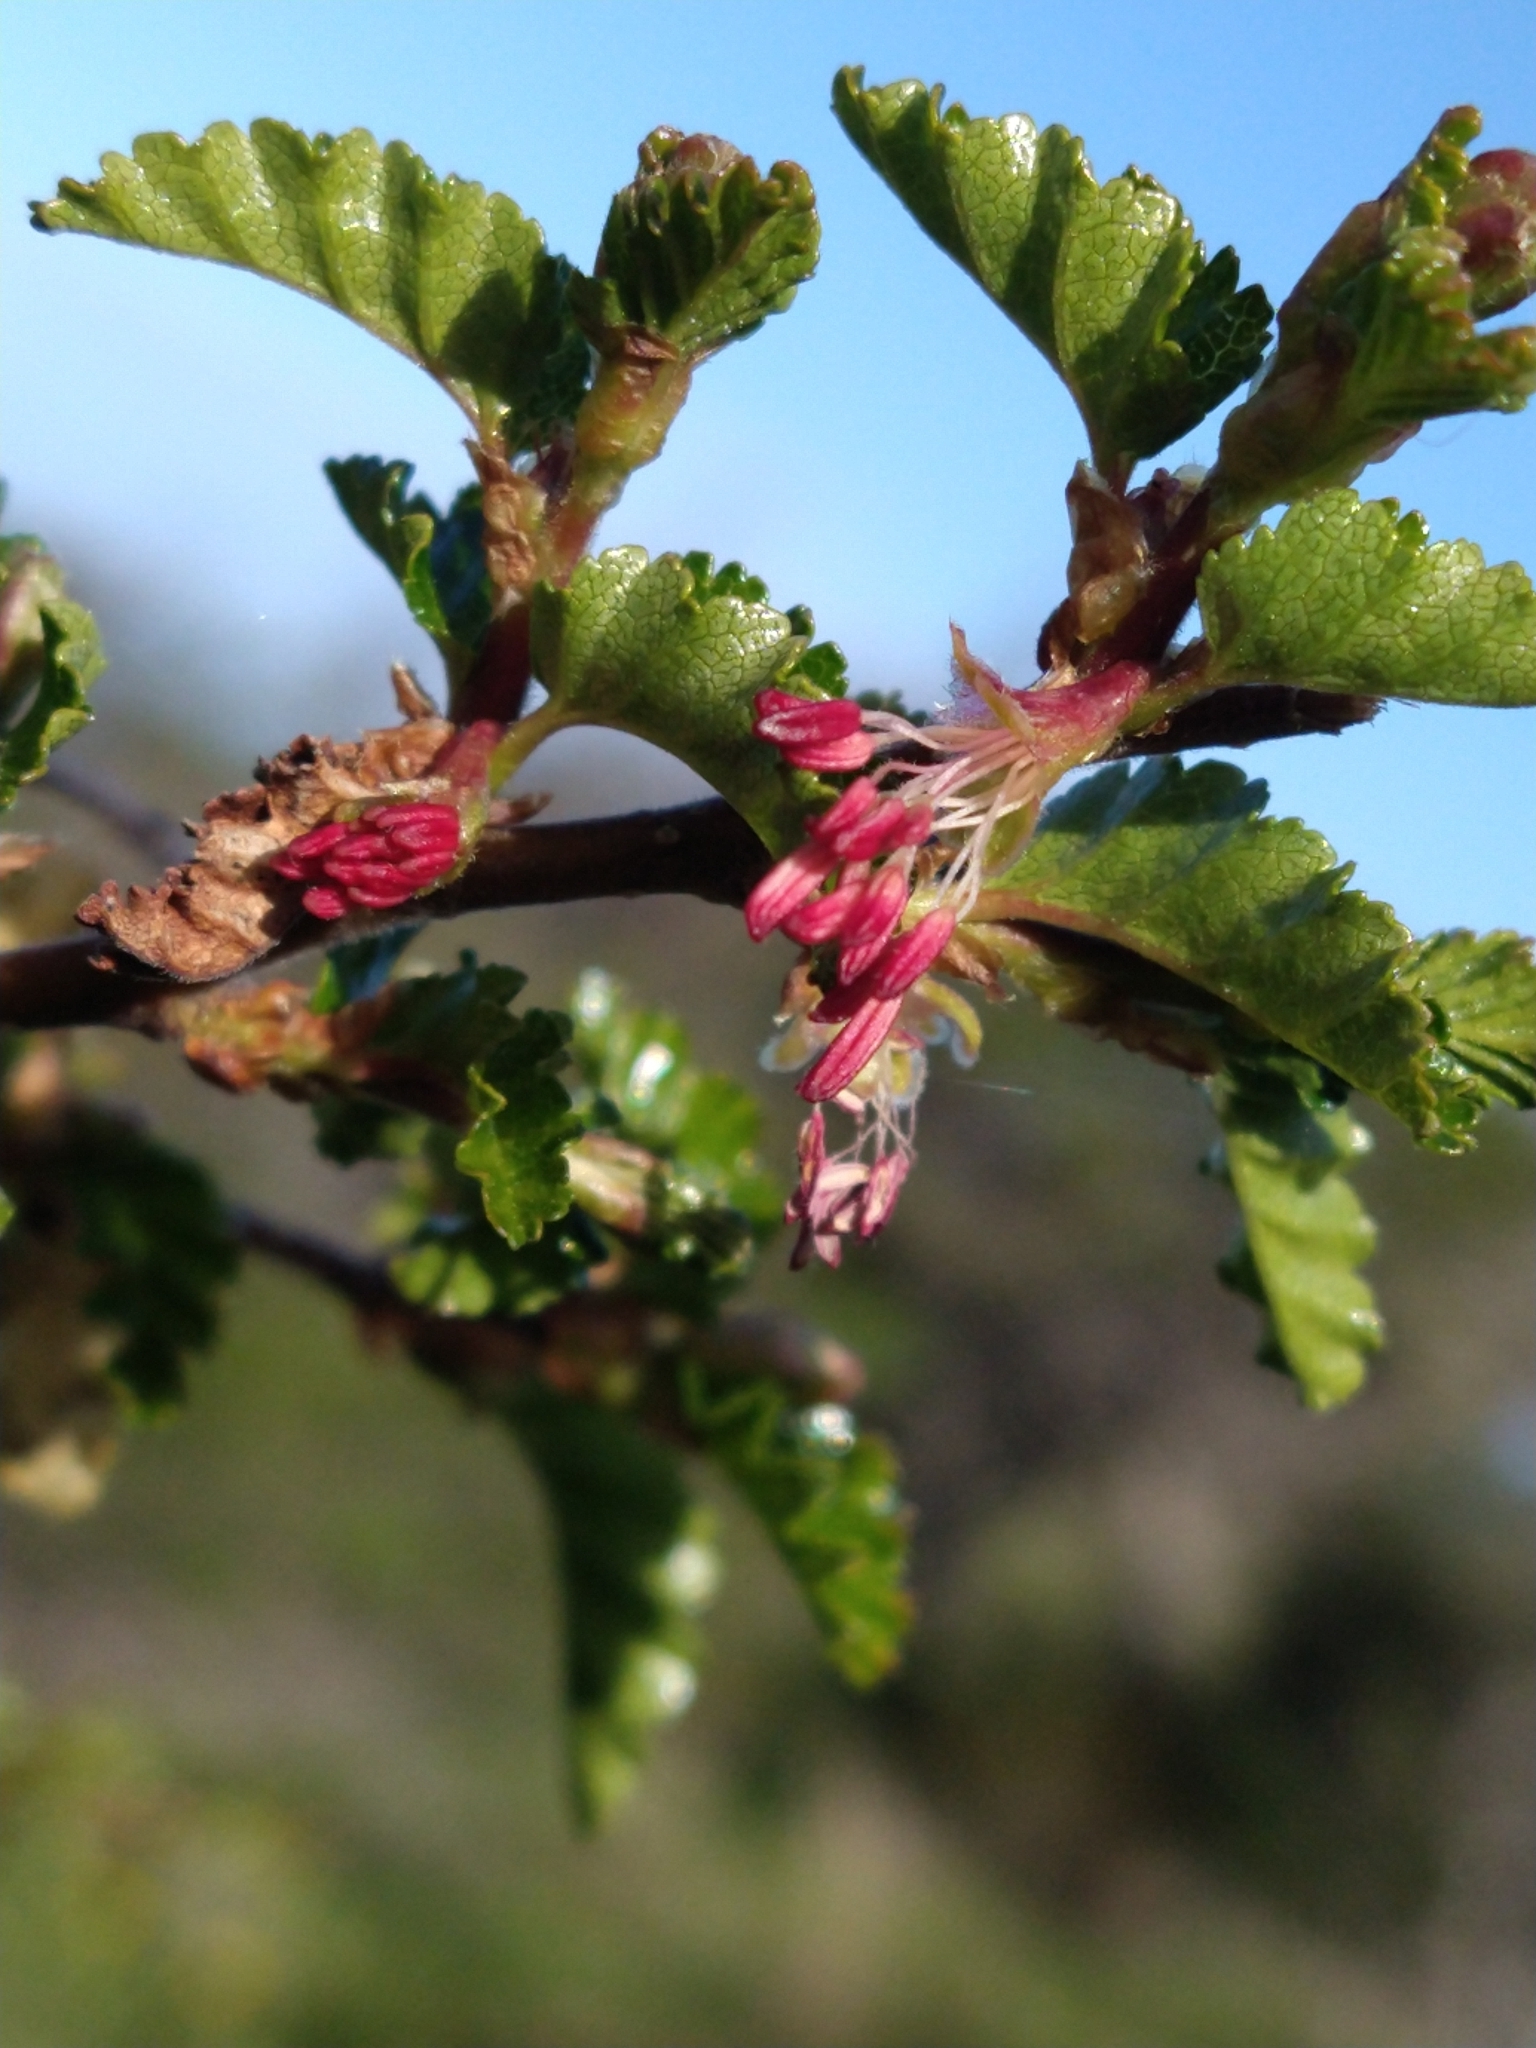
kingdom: Plantae
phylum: Tracheophyta
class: Magnoliopsida
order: Fagales
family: Nothofagaceae
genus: Nothofagus
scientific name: Nothofagus antarctica
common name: Antarctic beech
